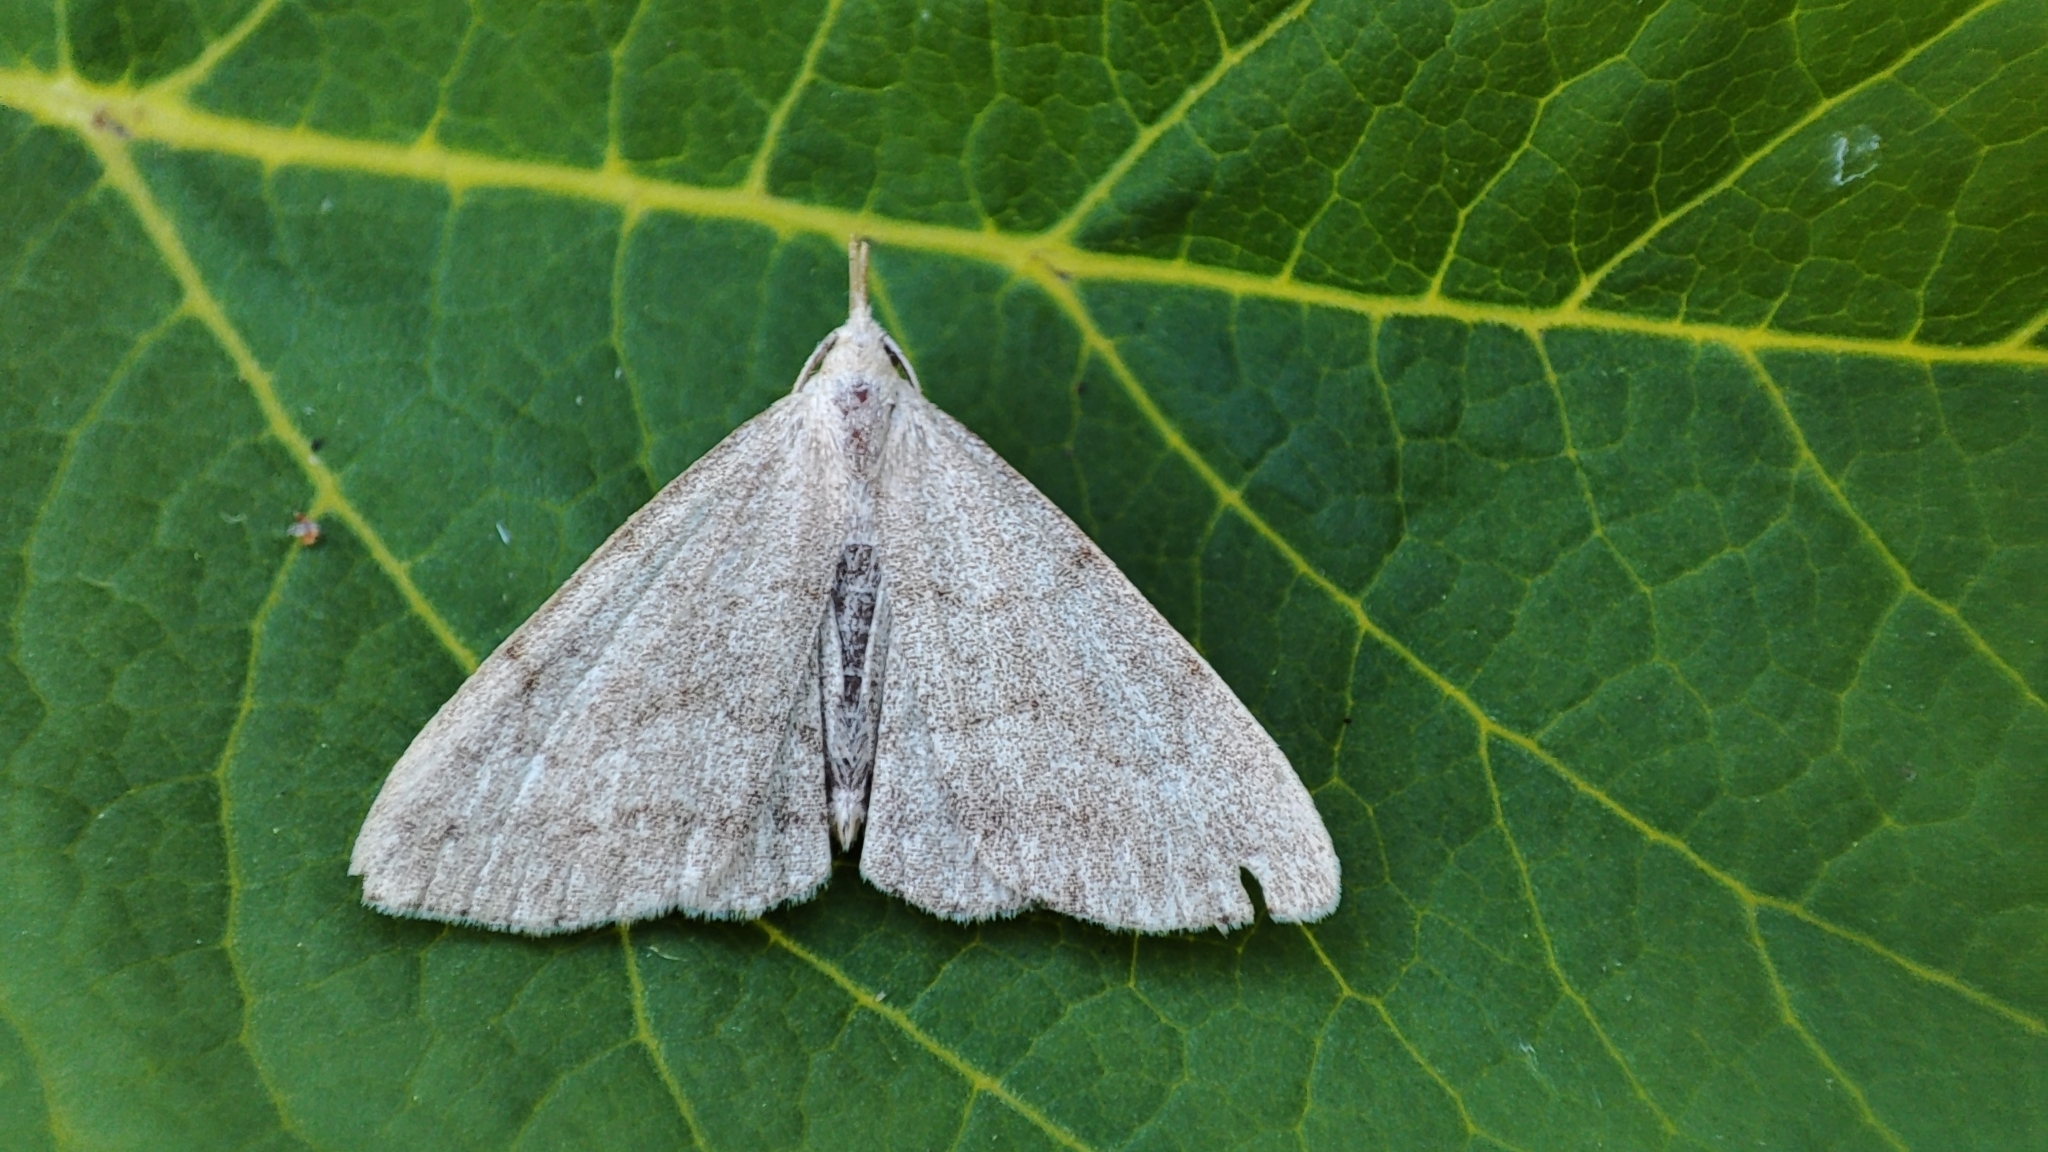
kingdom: Animalia
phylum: Arthropoda
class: Insecta
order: Lepidoptera
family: Erebidae
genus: Pechipogo
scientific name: Pechipogo strigilata
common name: Common fan-foot
